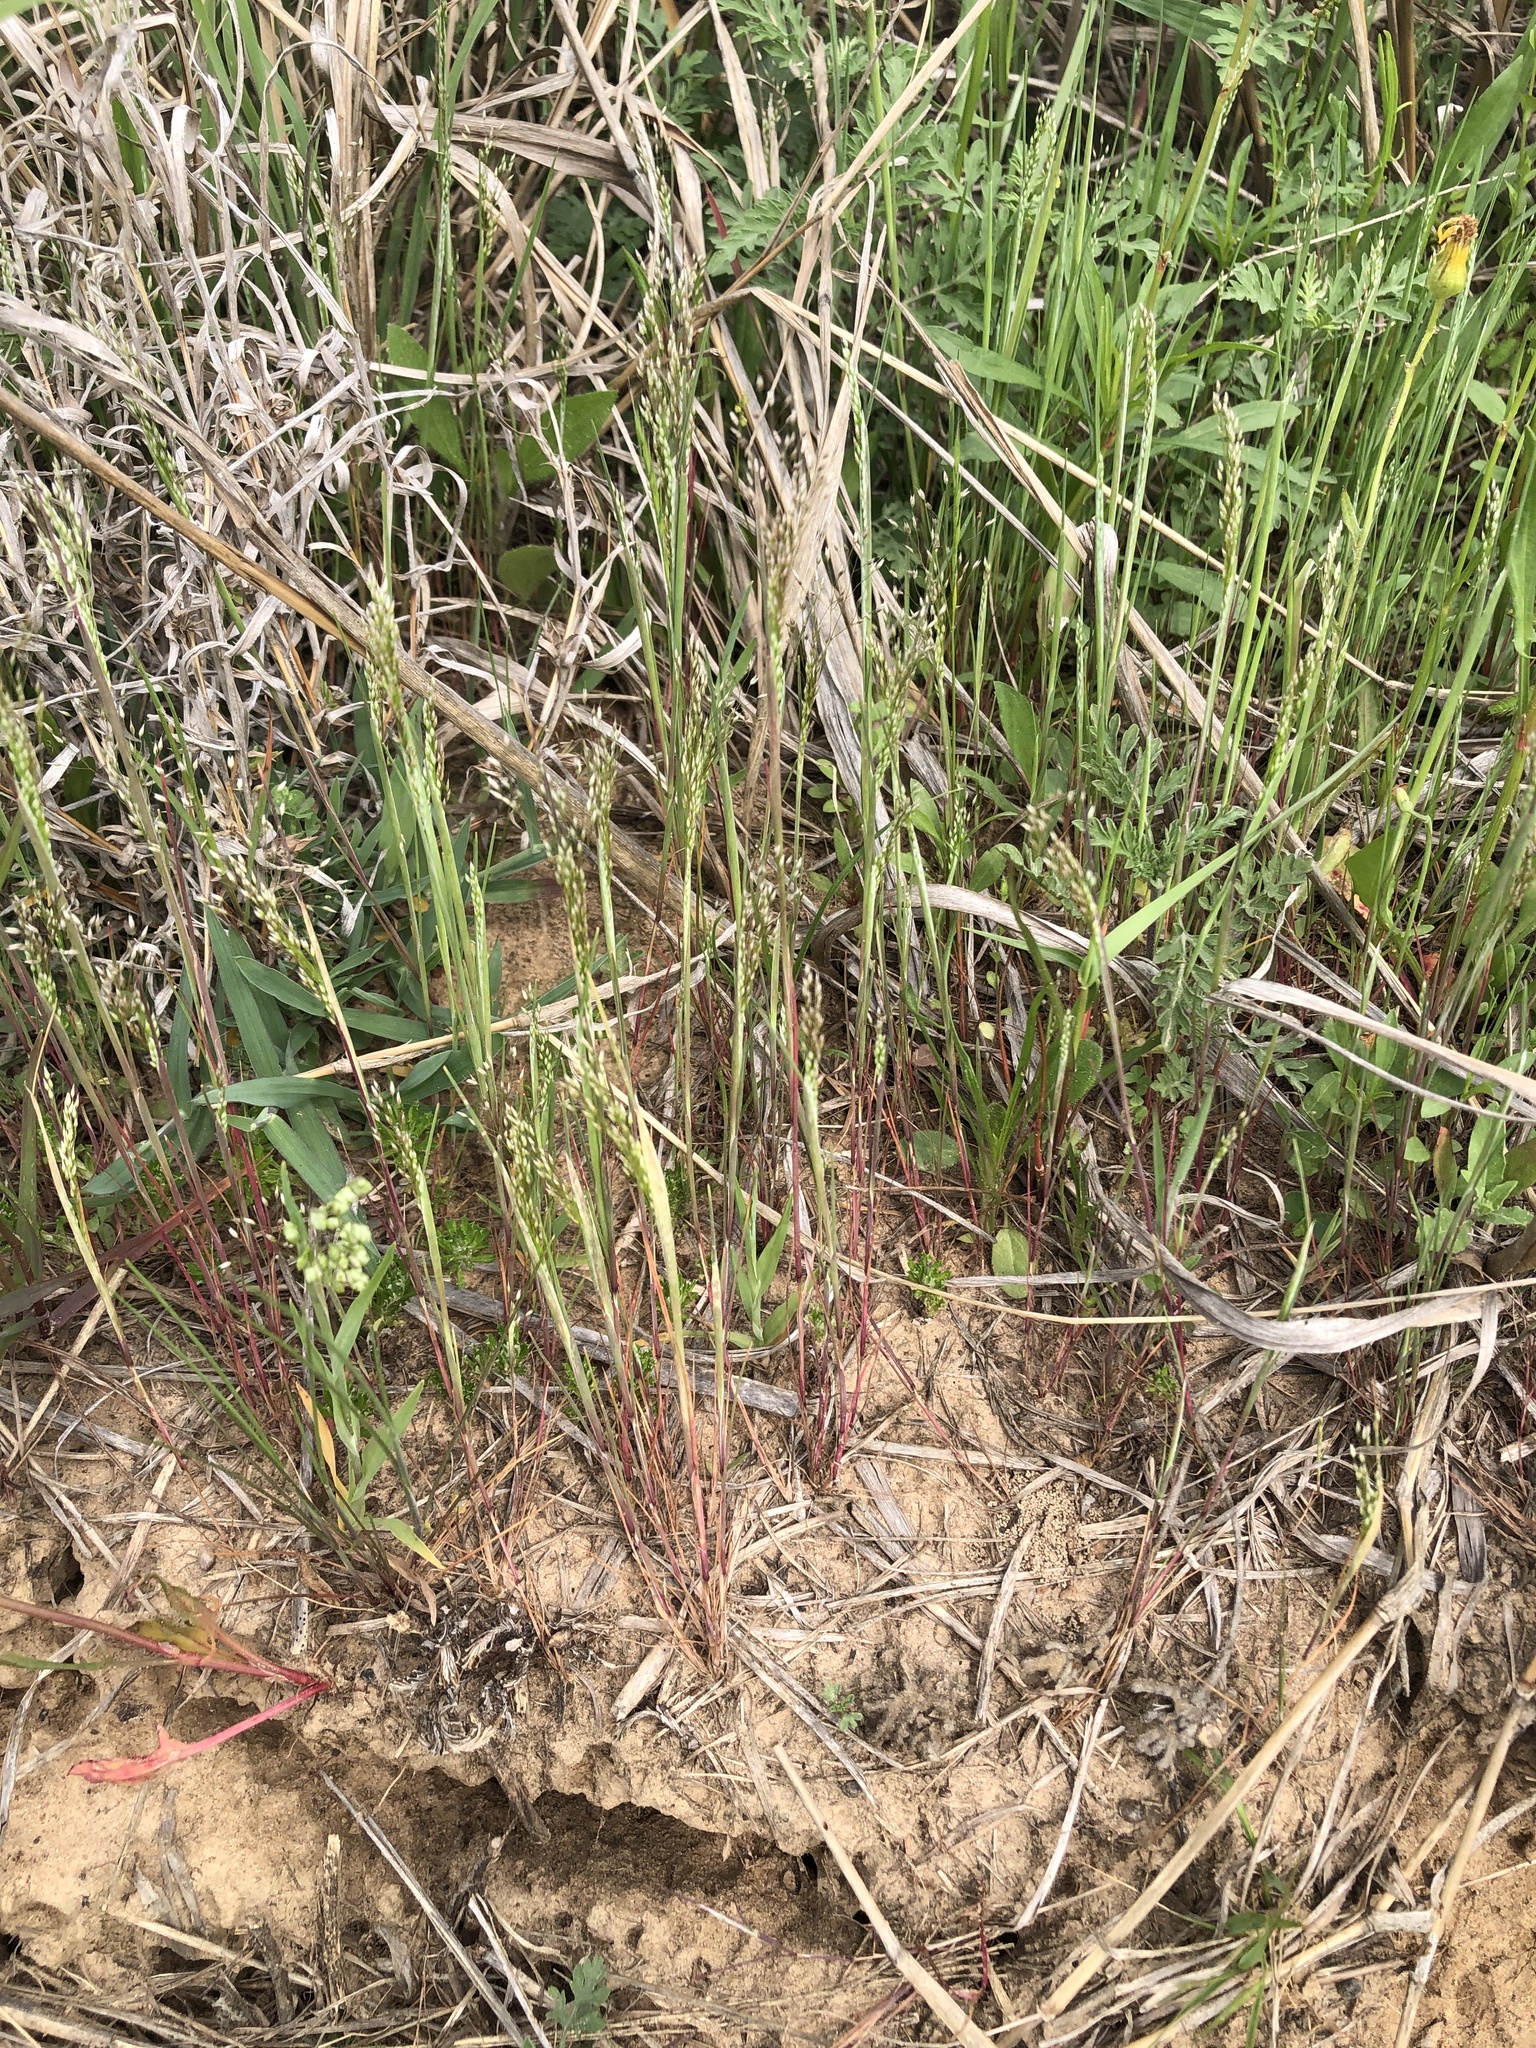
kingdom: Plantae
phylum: Tracheophyta
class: Liliopsida
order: Poales
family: Poaceae
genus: Aira
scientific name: Aira caryophyllea
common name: Silver hairgrass
